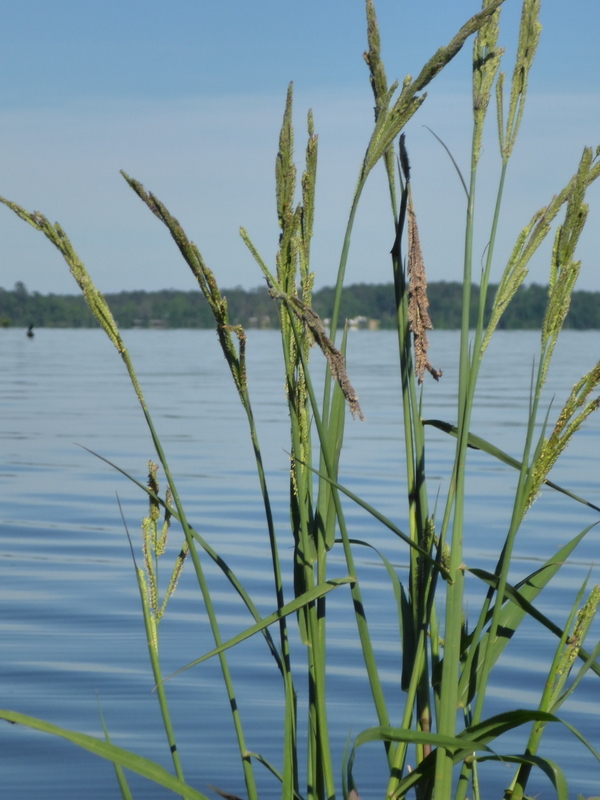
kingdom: Plantae
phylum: Tracheophyta
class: Liliopsida
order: Poales
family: Poaceae
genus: Paspalum
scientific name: Paspalum urvillei
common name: Vasey's grass
